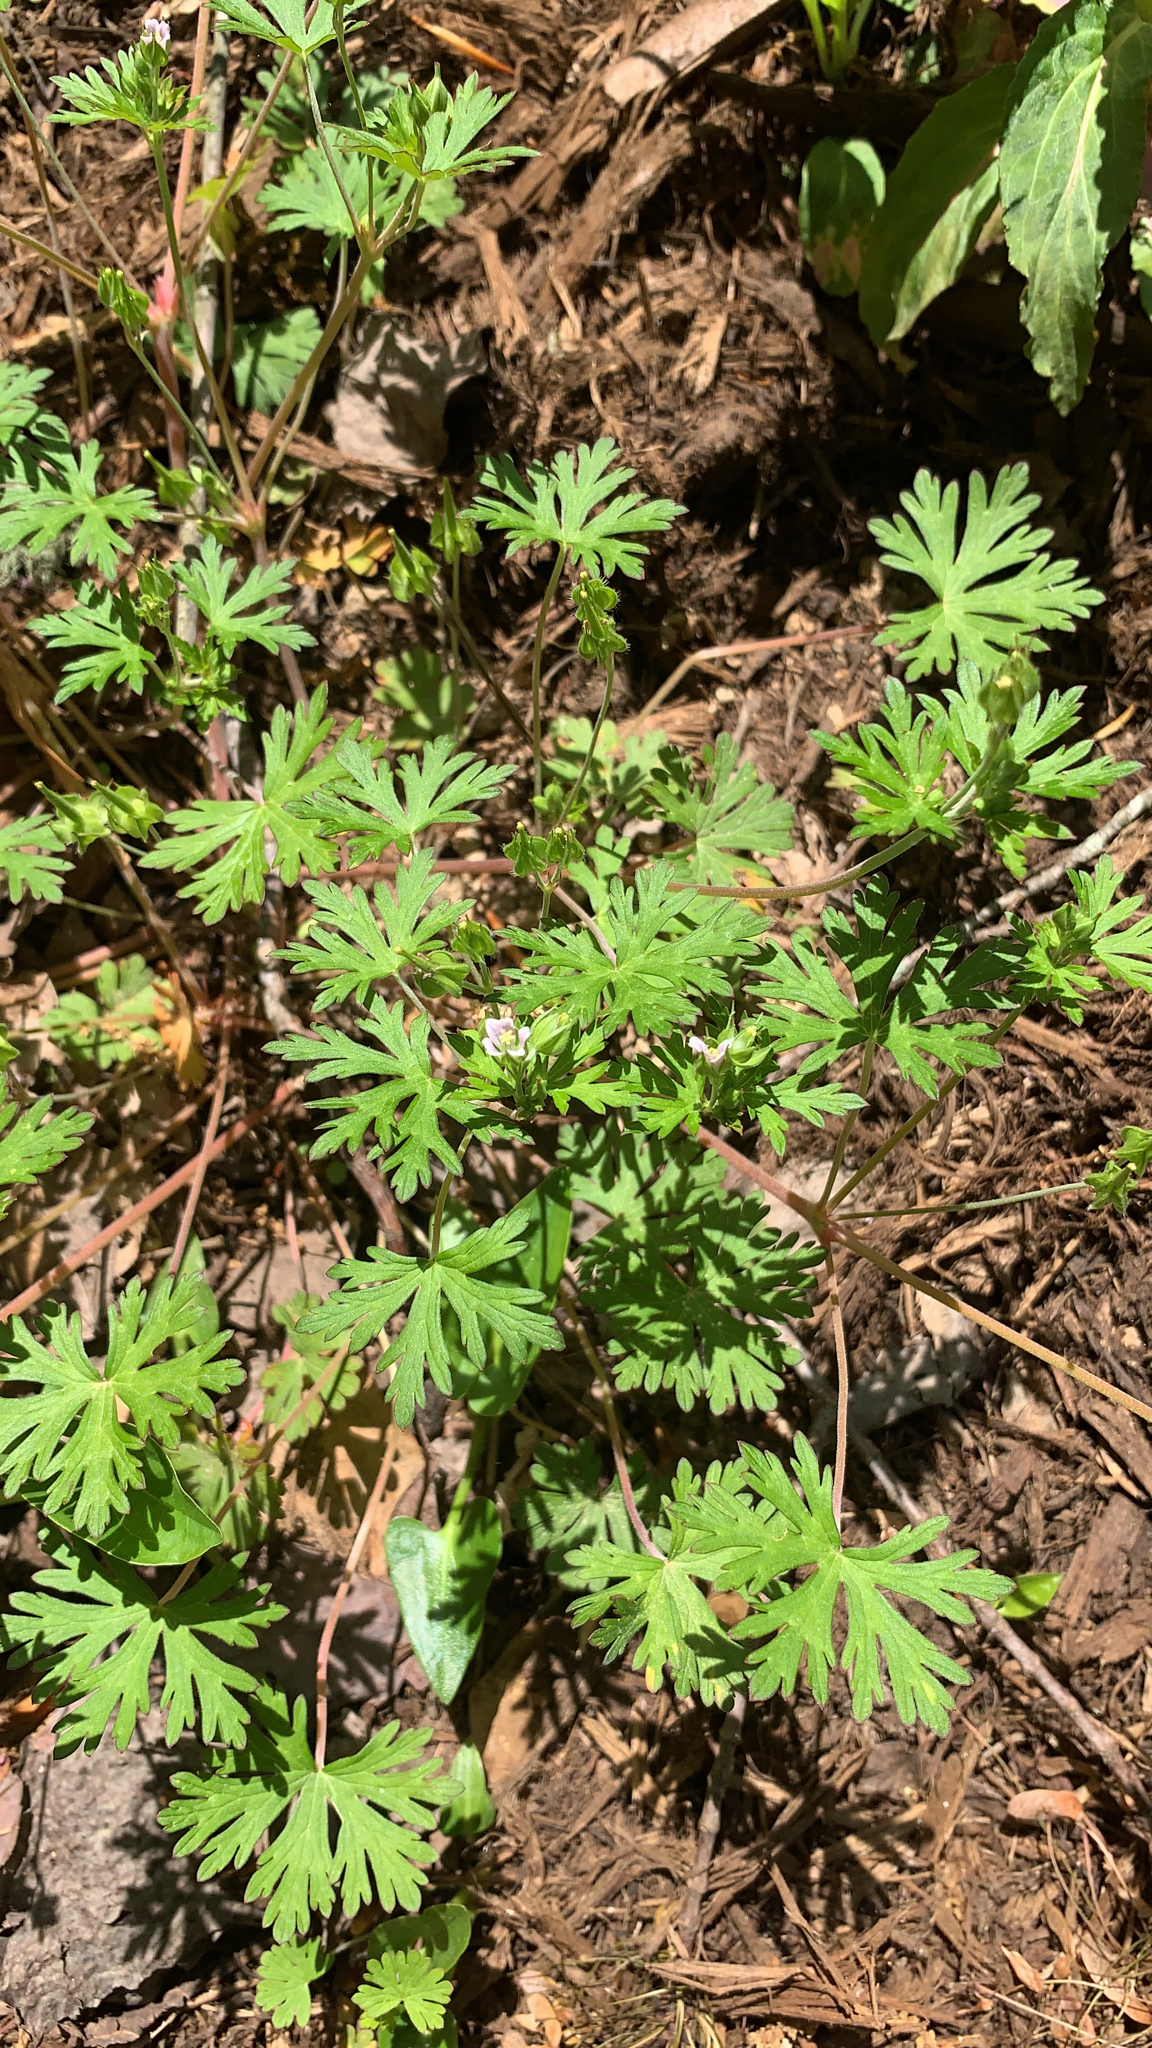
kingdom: Plantae
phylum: Tracheophyta
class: Magnoliopsida
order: Geraniales
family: Geraniaceae
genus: Geranium
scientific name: Geranium carolinianum
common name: Carolina crane's-bill
